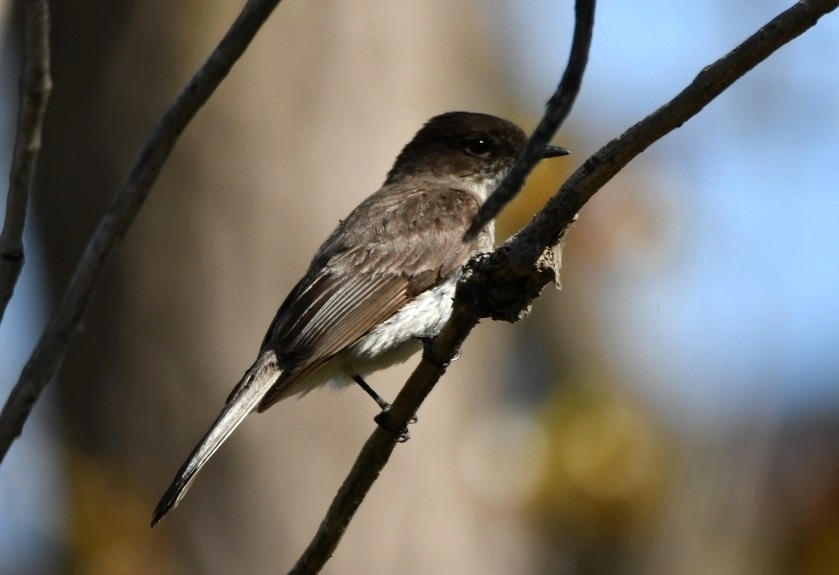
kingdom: Animalia
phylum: Chordata
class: Aves
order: Passeriformes
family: Tyrannidae
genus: Sayornis
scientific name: Sayornis phoebe
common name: Eastern phoebe
